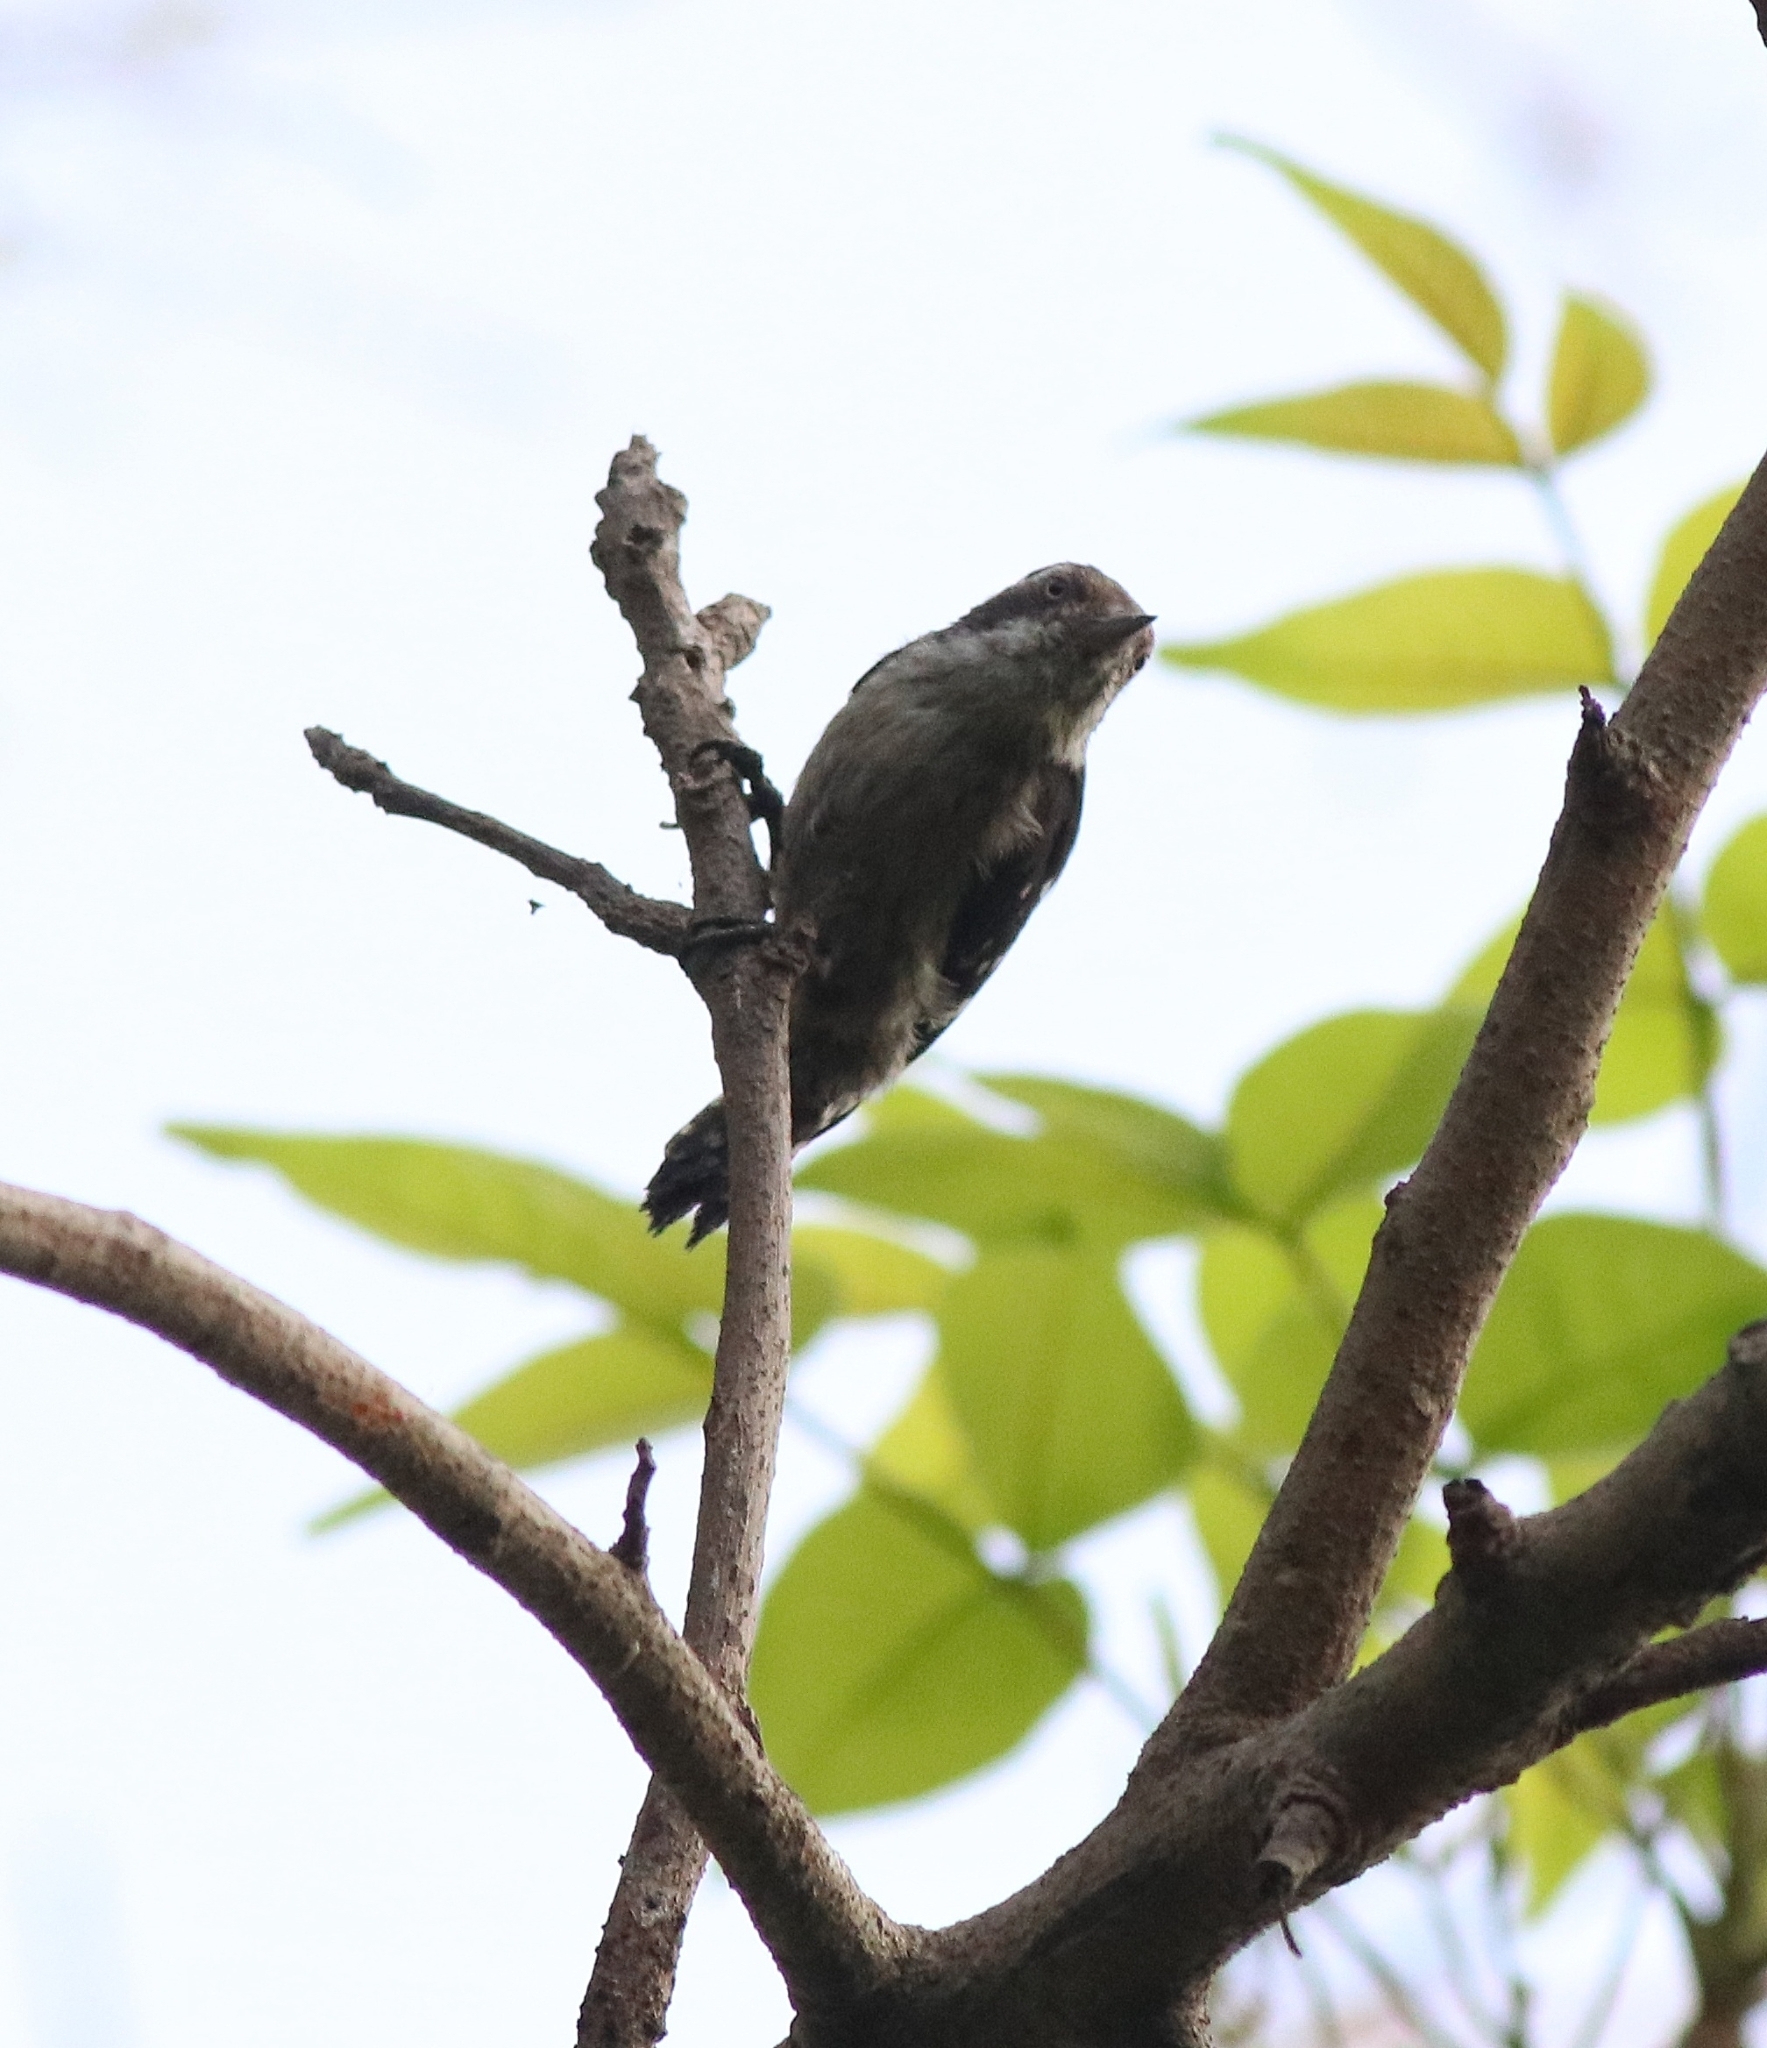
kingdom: Animalia
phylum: Chordata
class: Aves
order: Piciformes
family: Picidae
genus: Yungipicus
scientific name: Yungipicus nanus
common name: Brown-capped pygmy woodpecker
